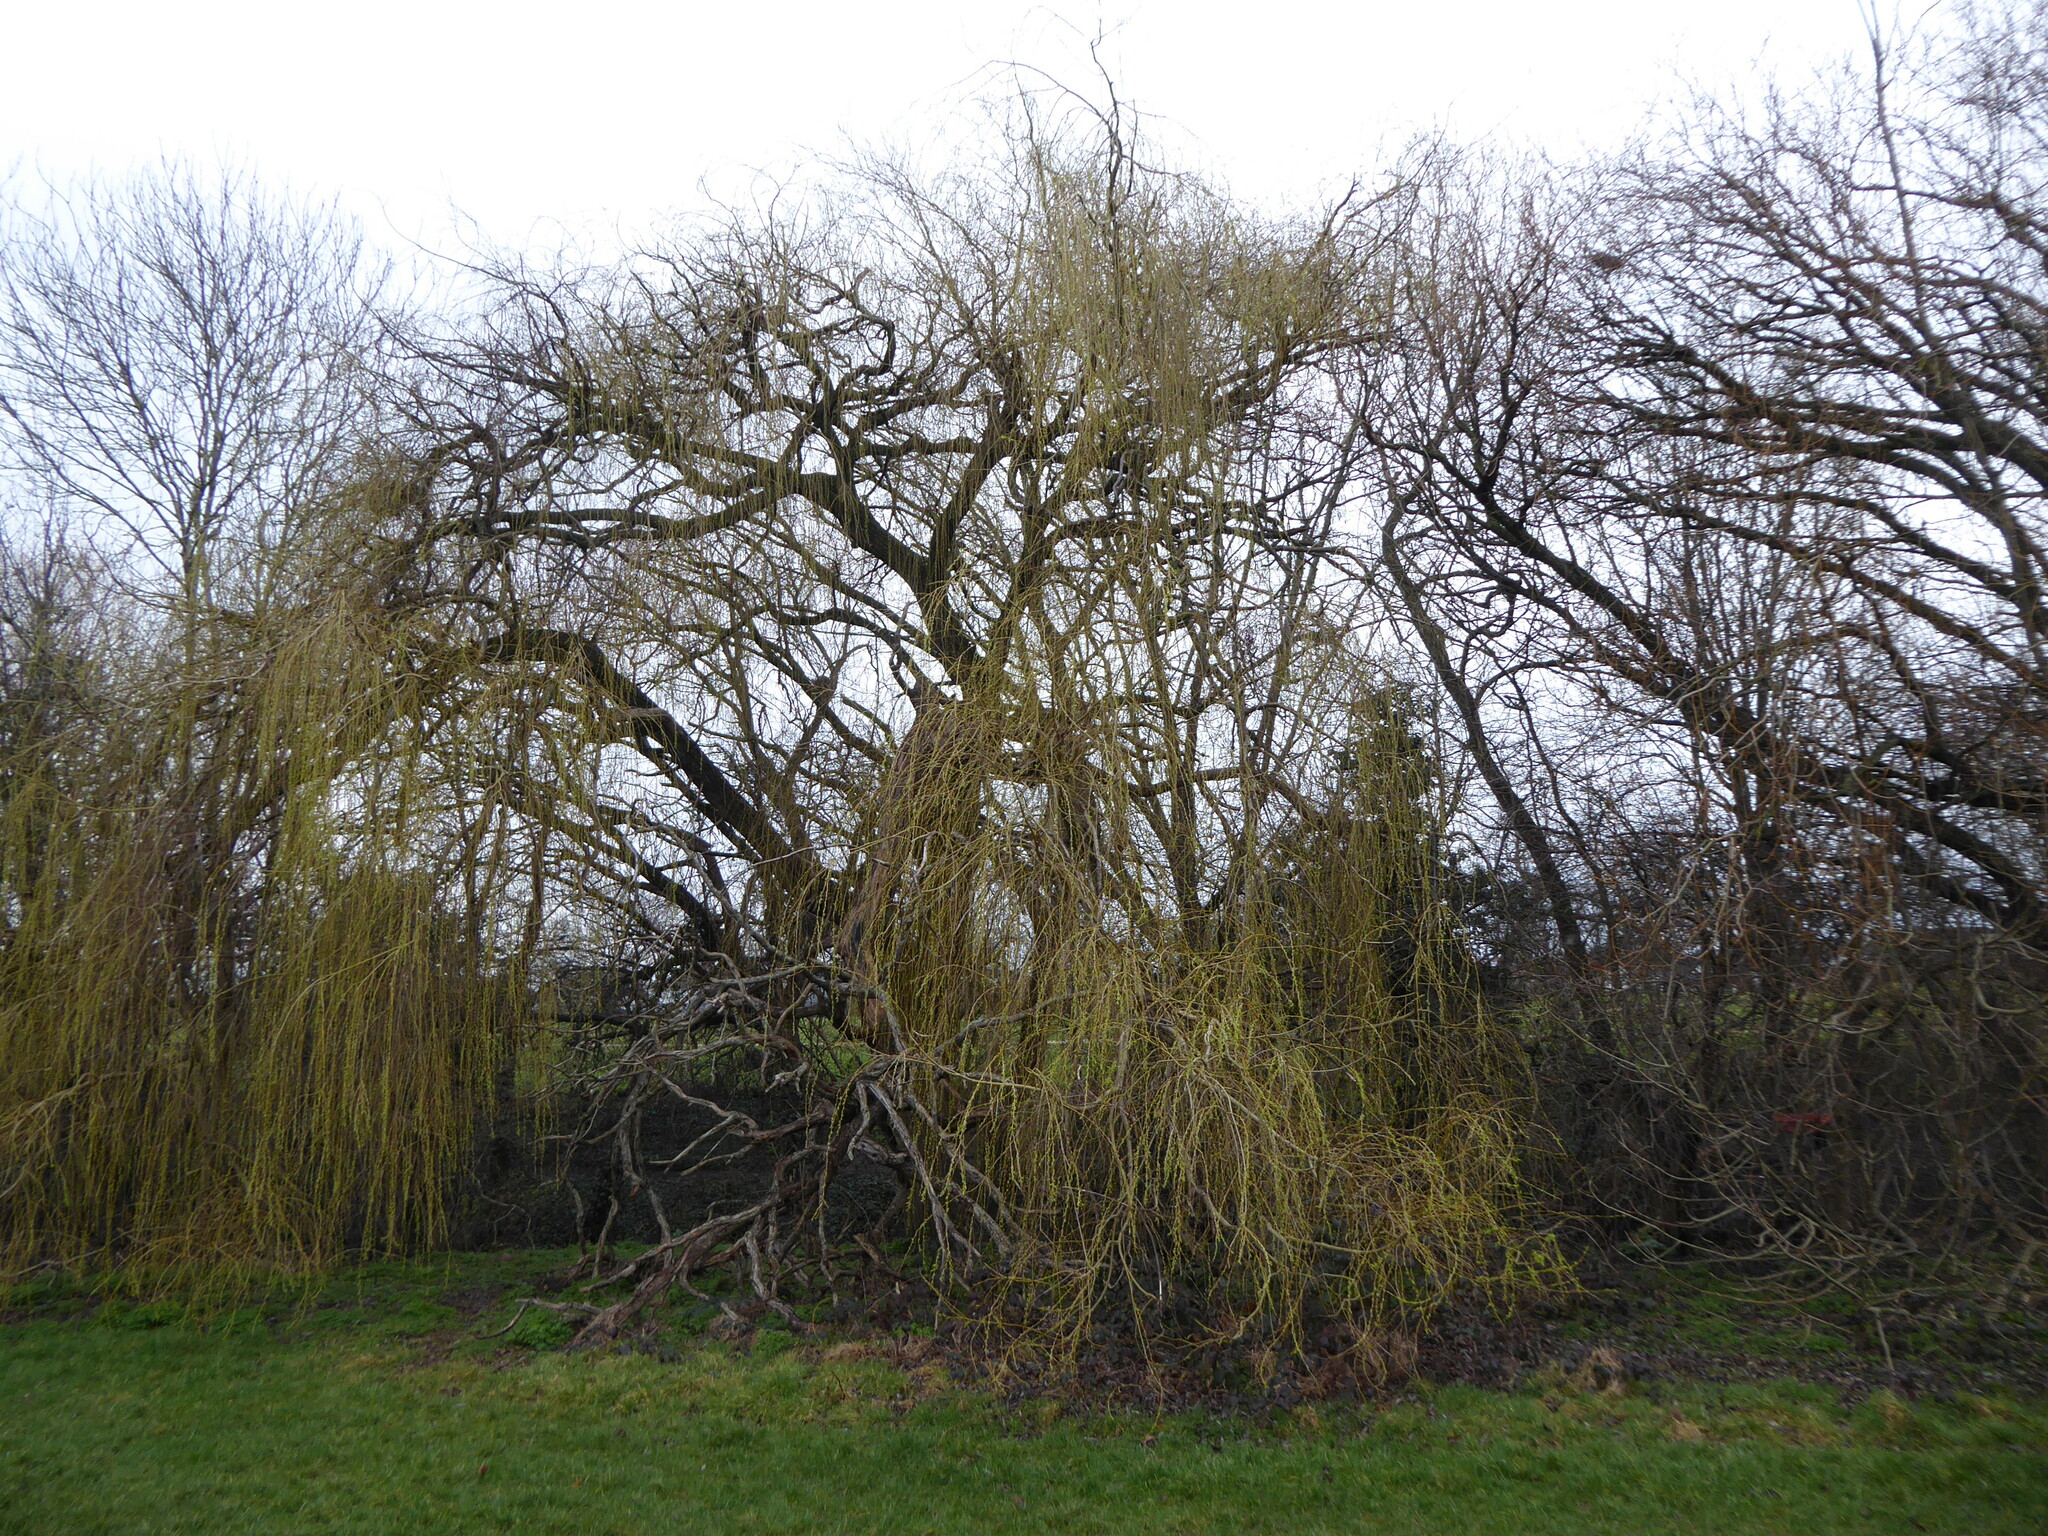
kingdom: Plantae
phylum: Tracheophyta
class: Magnoliopsida
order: Malpighiales
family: Salicaceae
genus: Salix
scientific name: Salix pendulina
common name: Wisconsin weeping willow
